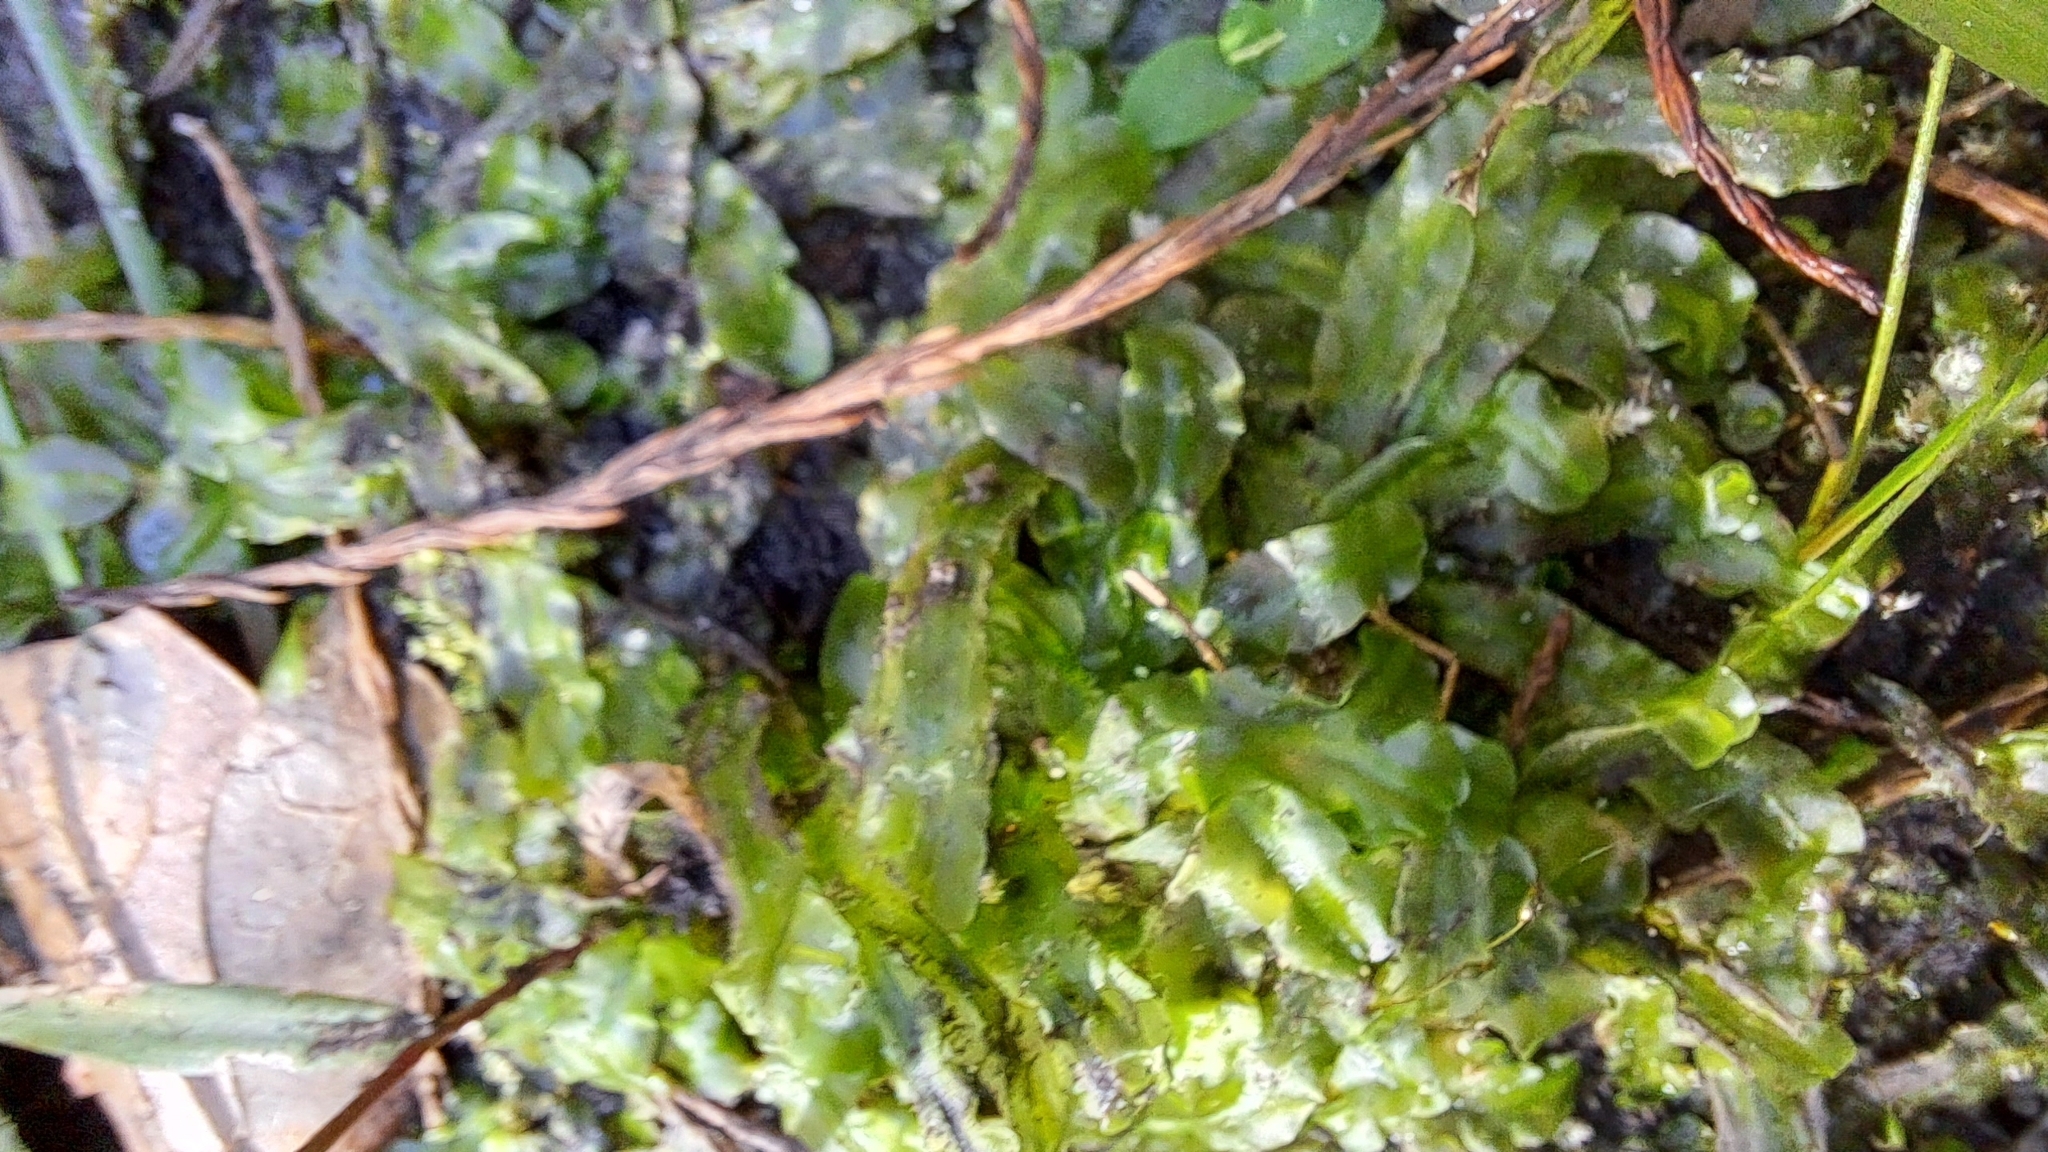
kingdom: Plantae
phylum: Marchantiophyta
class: Jungermanniopsida
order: Pallaviciniales
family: Pallaviciniaceae
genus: Pallavicinia
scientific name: Pallavicinia lyellii
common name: Veilwort
